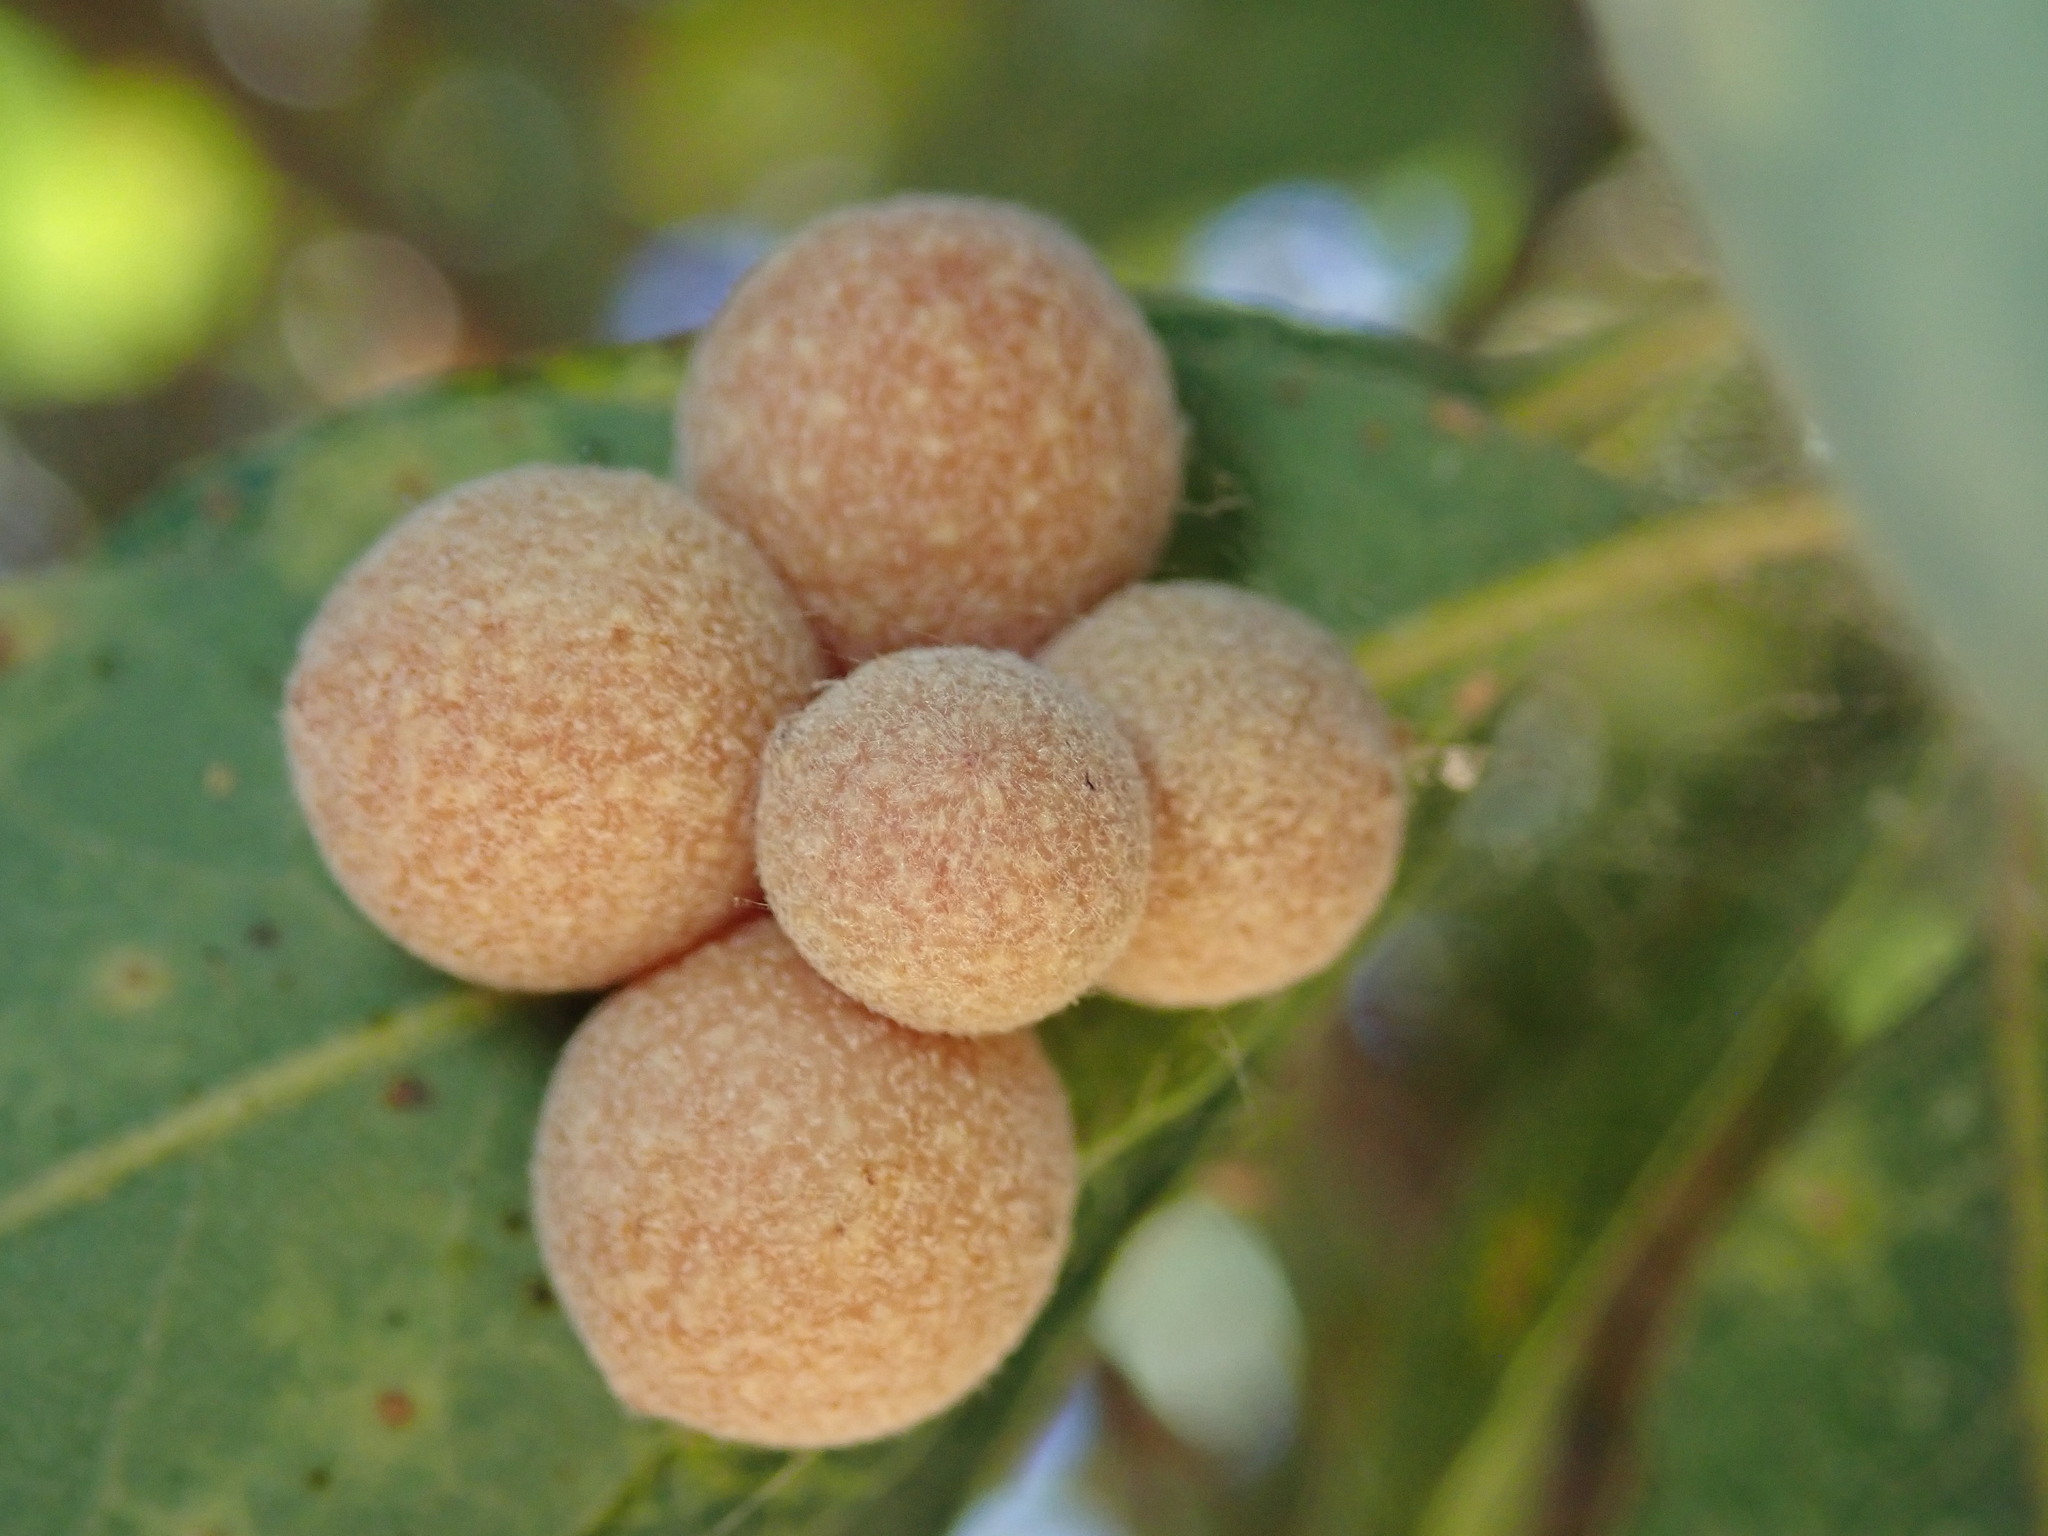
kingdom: Animalia
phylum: Arthropoda
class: Insecta
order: Hymenoptera
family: Cynipidae
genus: Andricus
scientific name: Andricus
